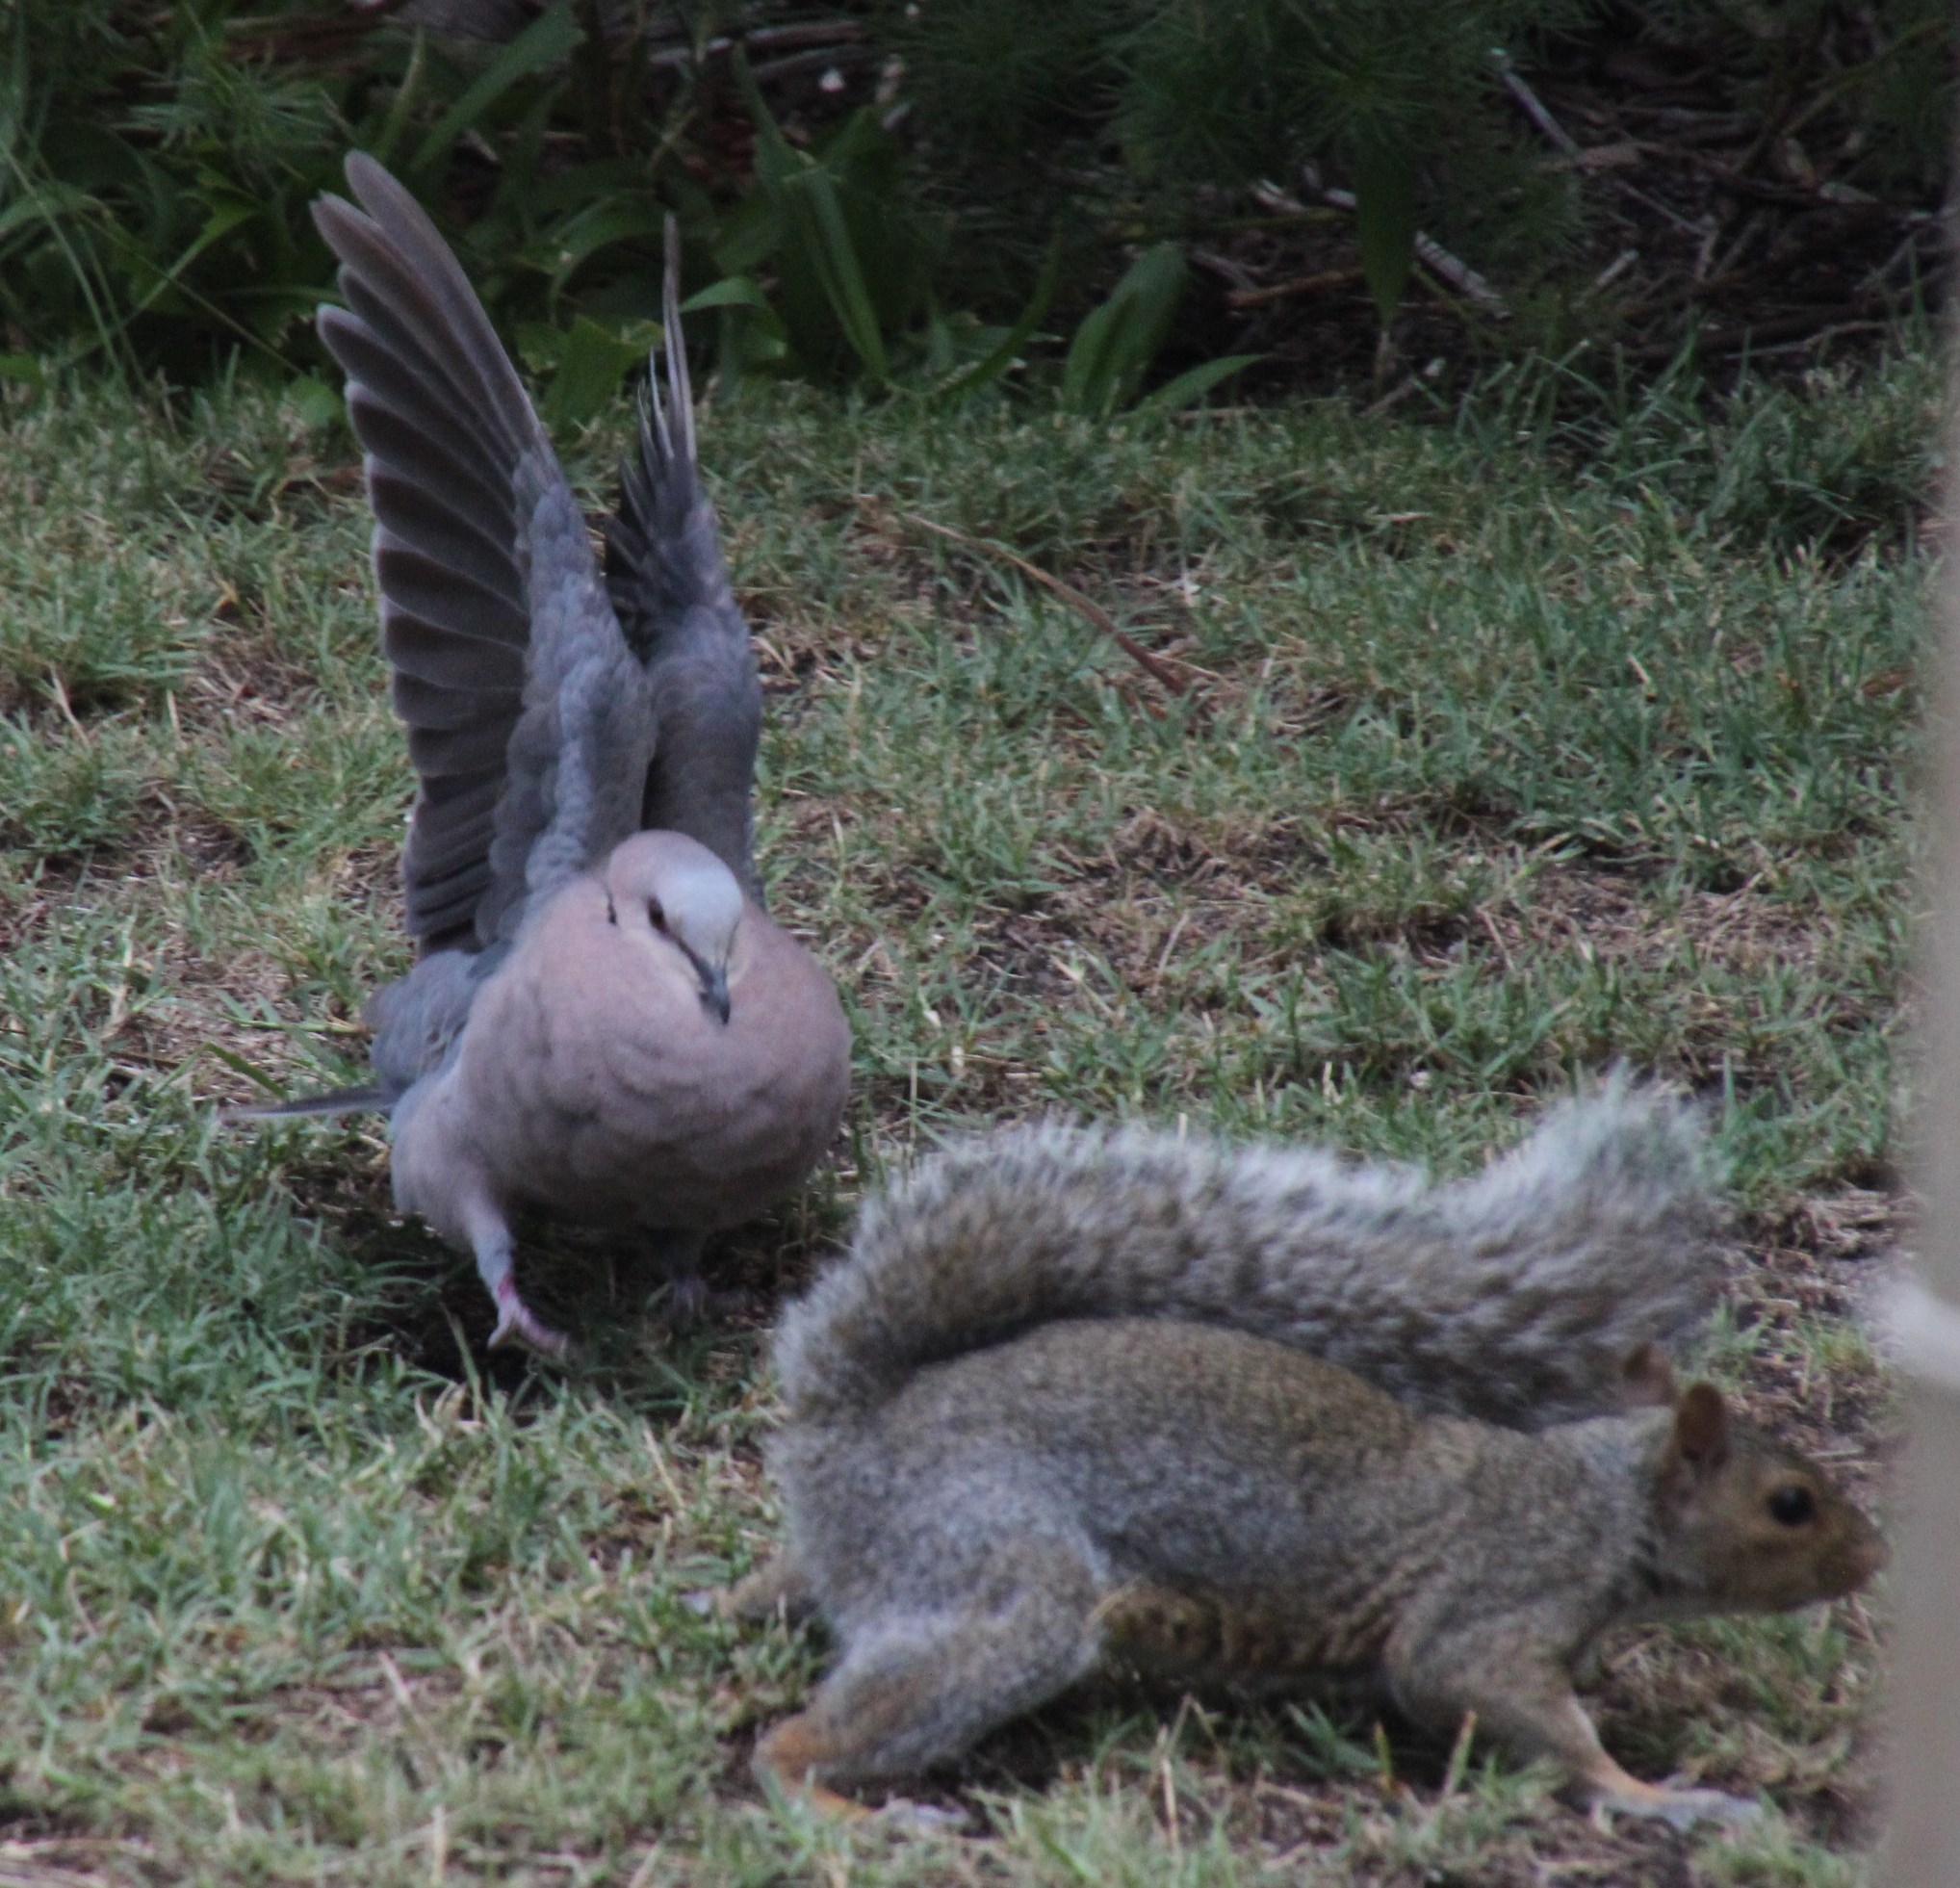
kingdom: Animalia
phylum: Chordata
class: Mammalia
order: Rodentia
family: Sciuridae
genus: Sciurus
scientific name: Sciurus carolinensis
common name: Eastern gray squirrel
